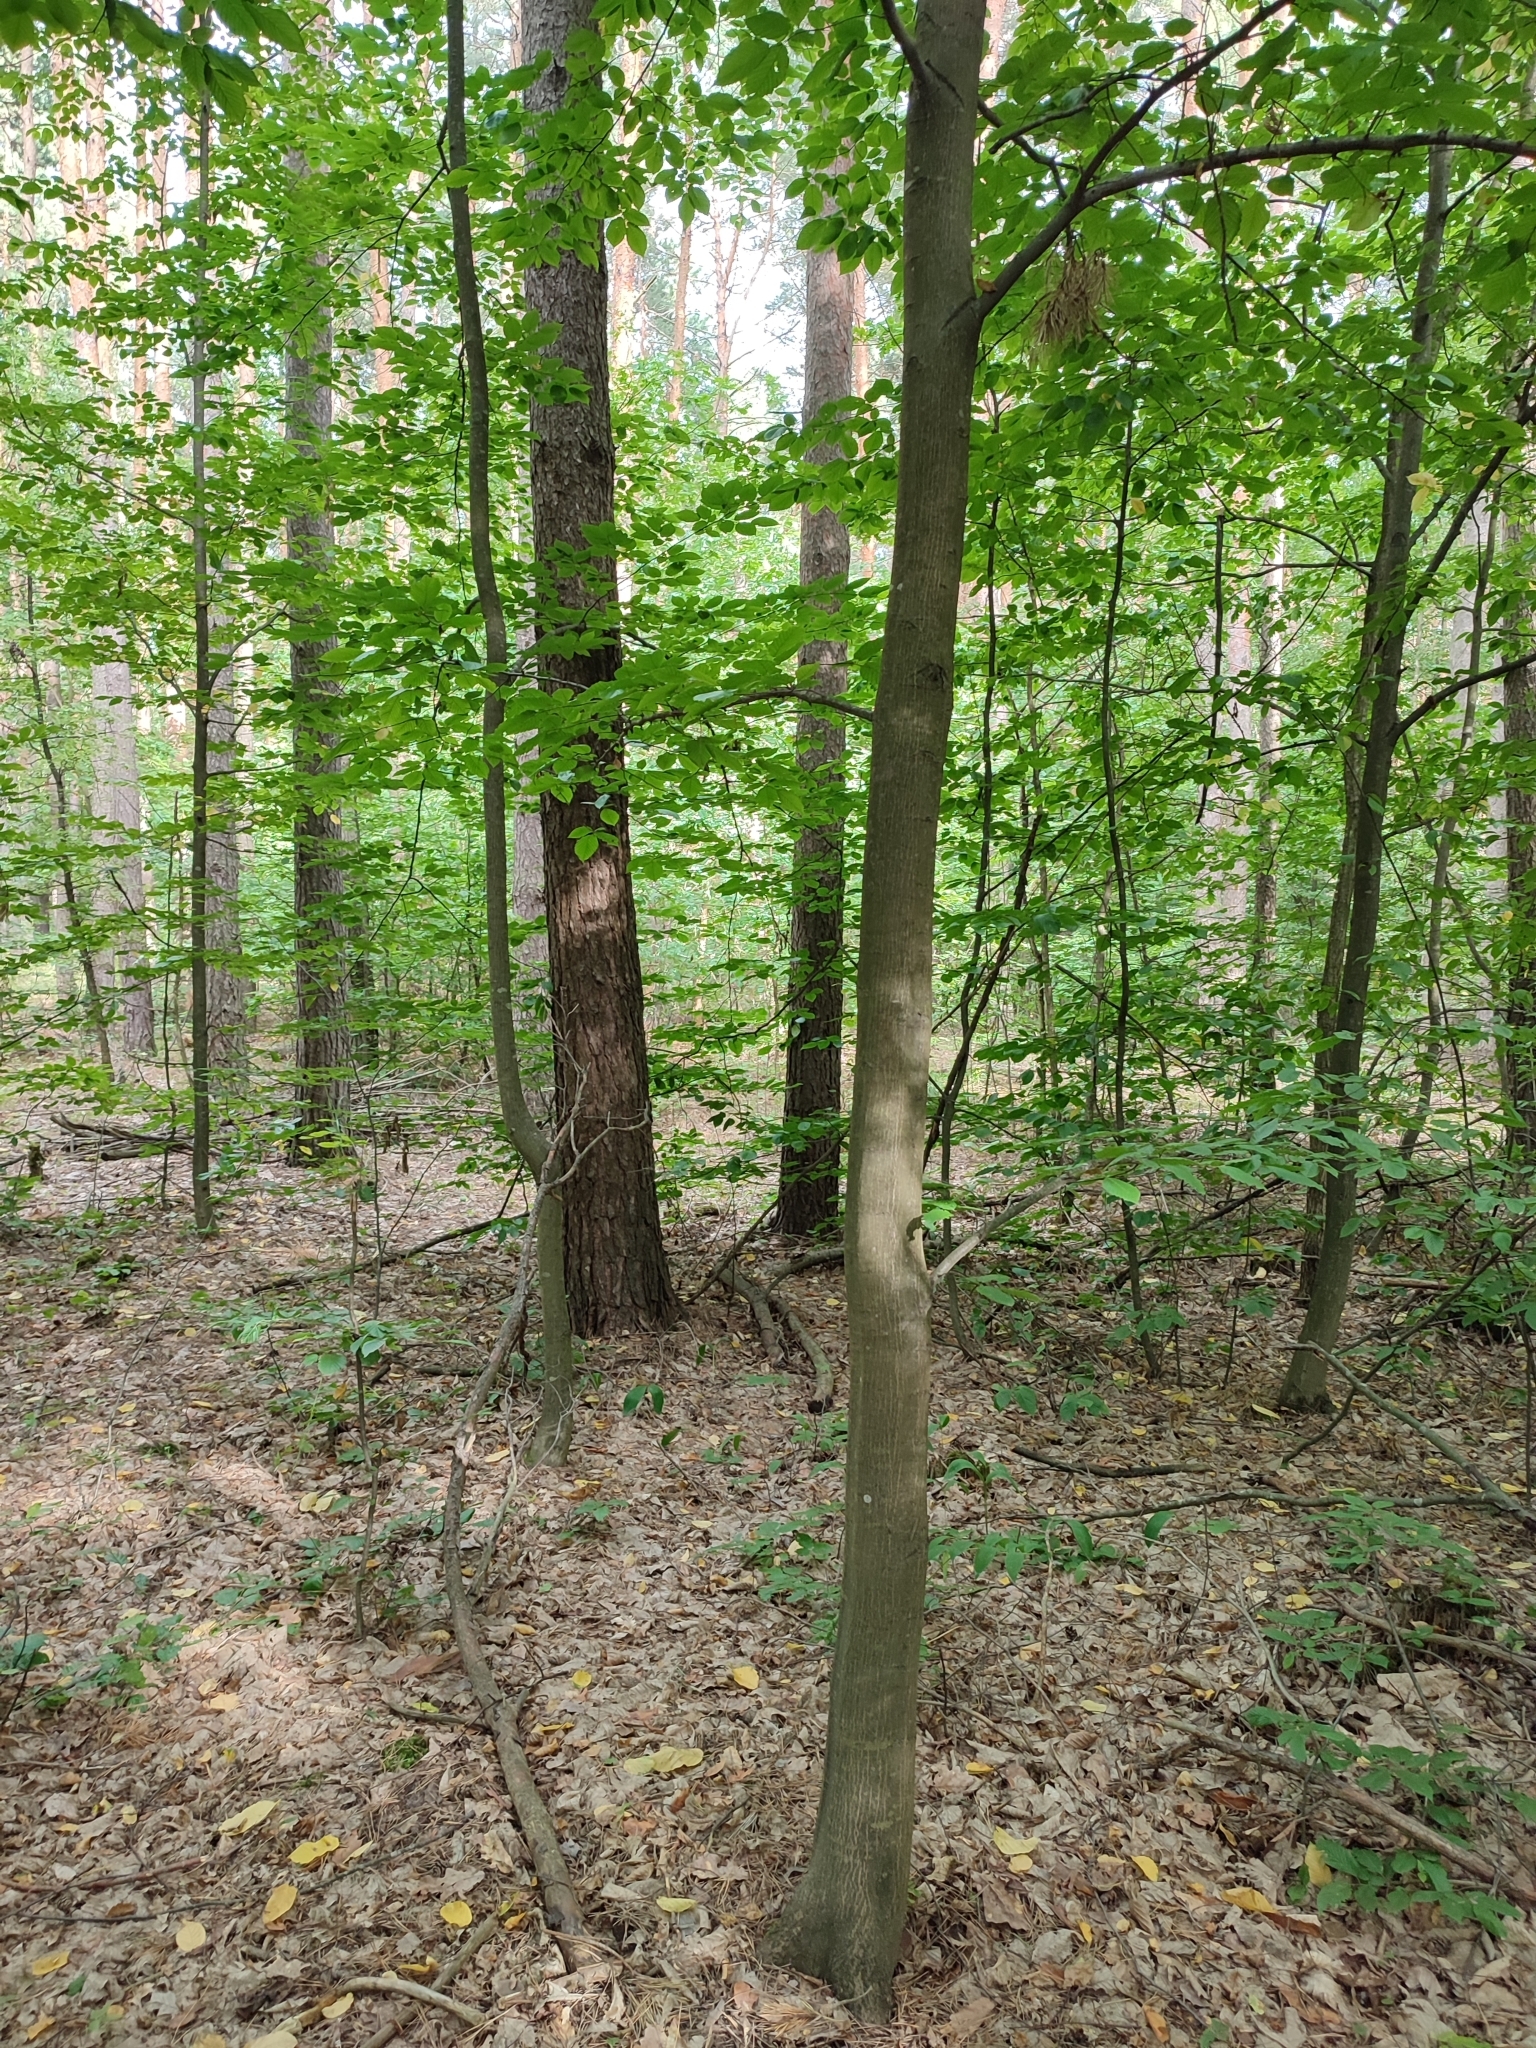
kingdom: Plantae
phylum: Tracheophyta
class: Magnoliopsida
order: Fagales
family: Betulaceae
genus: Carpinus
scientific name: Carpinus betulus
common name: Hornbeam
